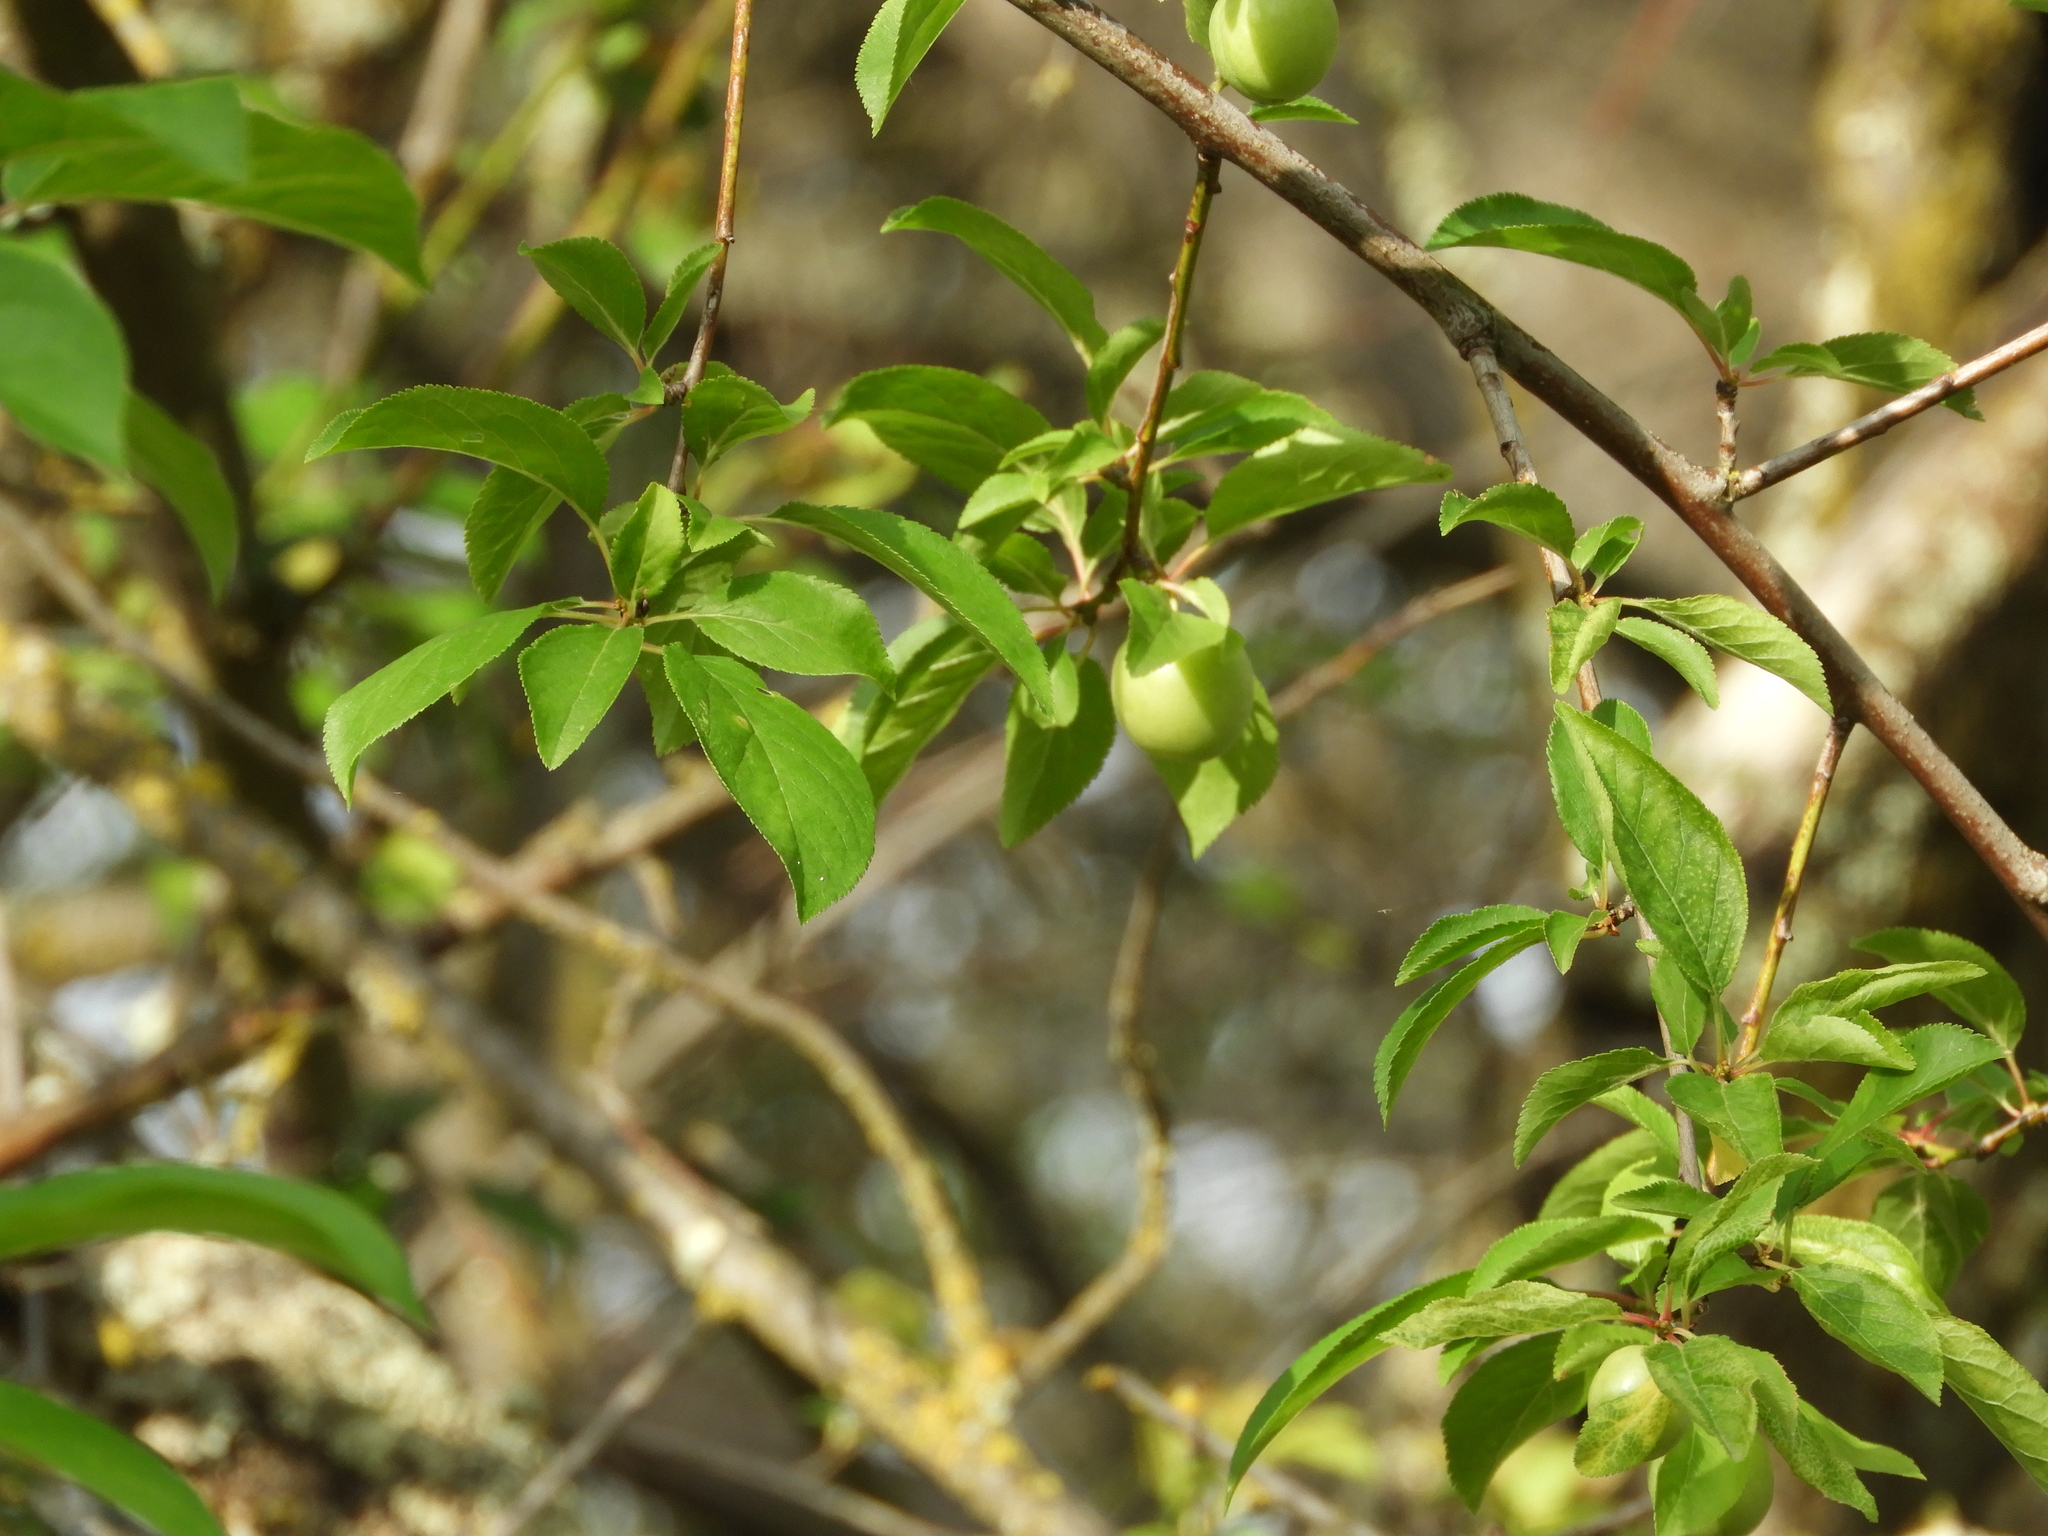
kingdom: Plantae
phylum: Tracheophyta
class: Magnoliopsida
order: Rosales
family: Rosaceae
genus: Prunus
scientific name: Prunus cerasifera
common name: Cherry plum
